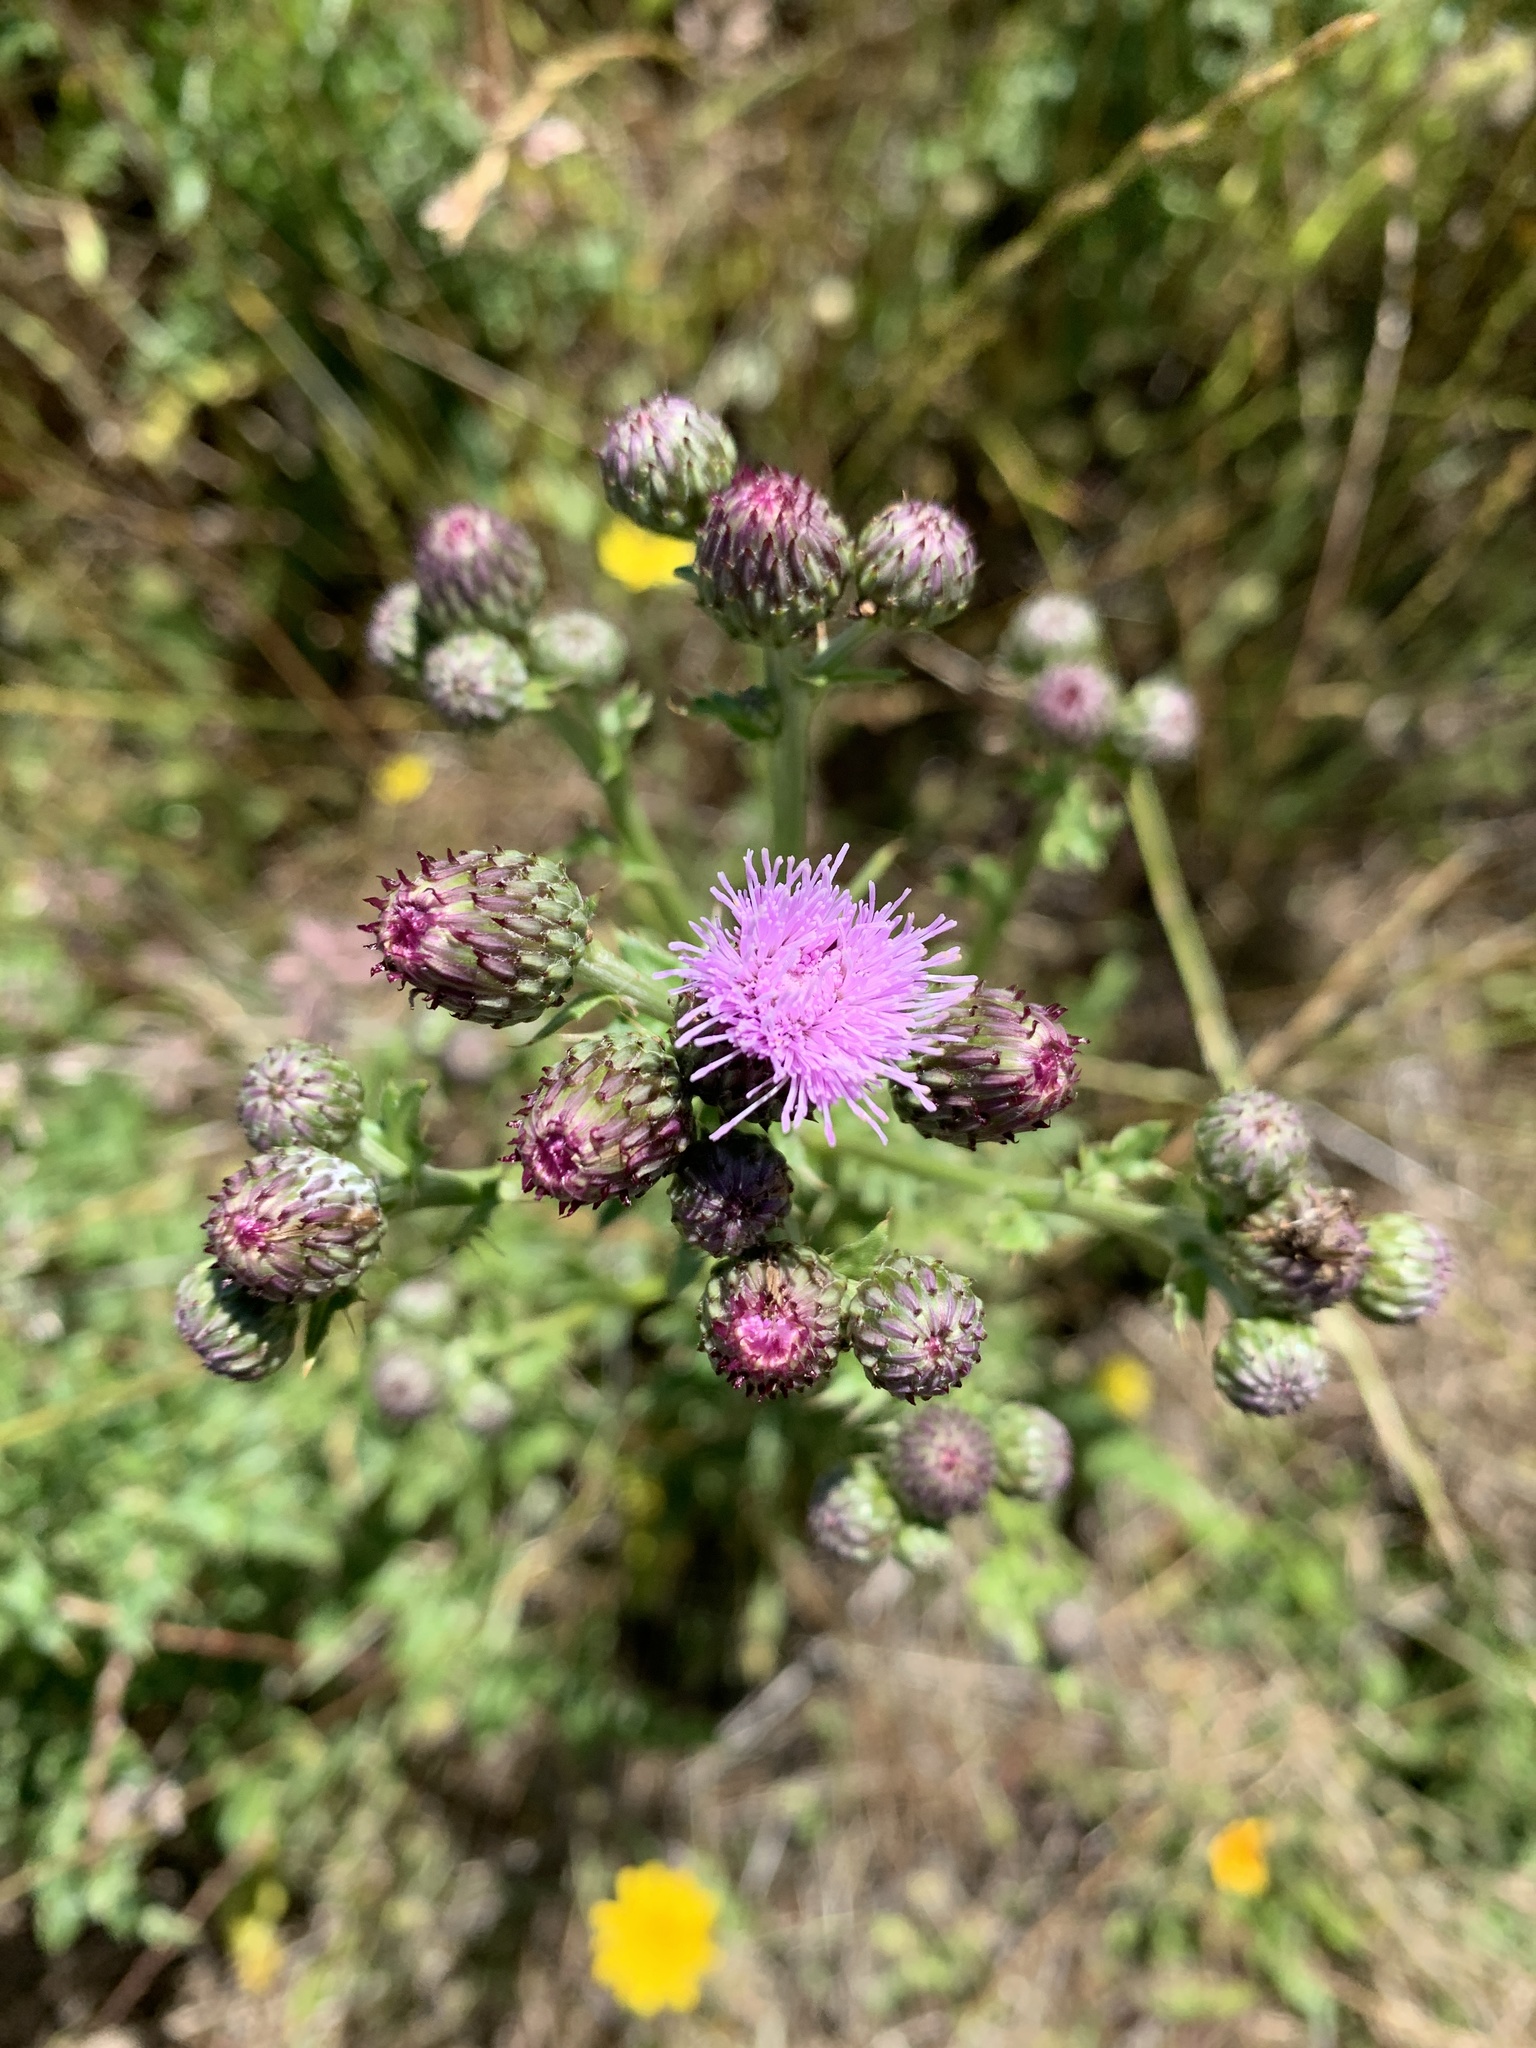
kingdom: Plantae
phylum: Tracheophyta
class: Magnoliopsida
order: Asterales
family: Asteraceae
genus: Cirsium
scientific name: Cirsium arvense
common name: Creeping thistle
